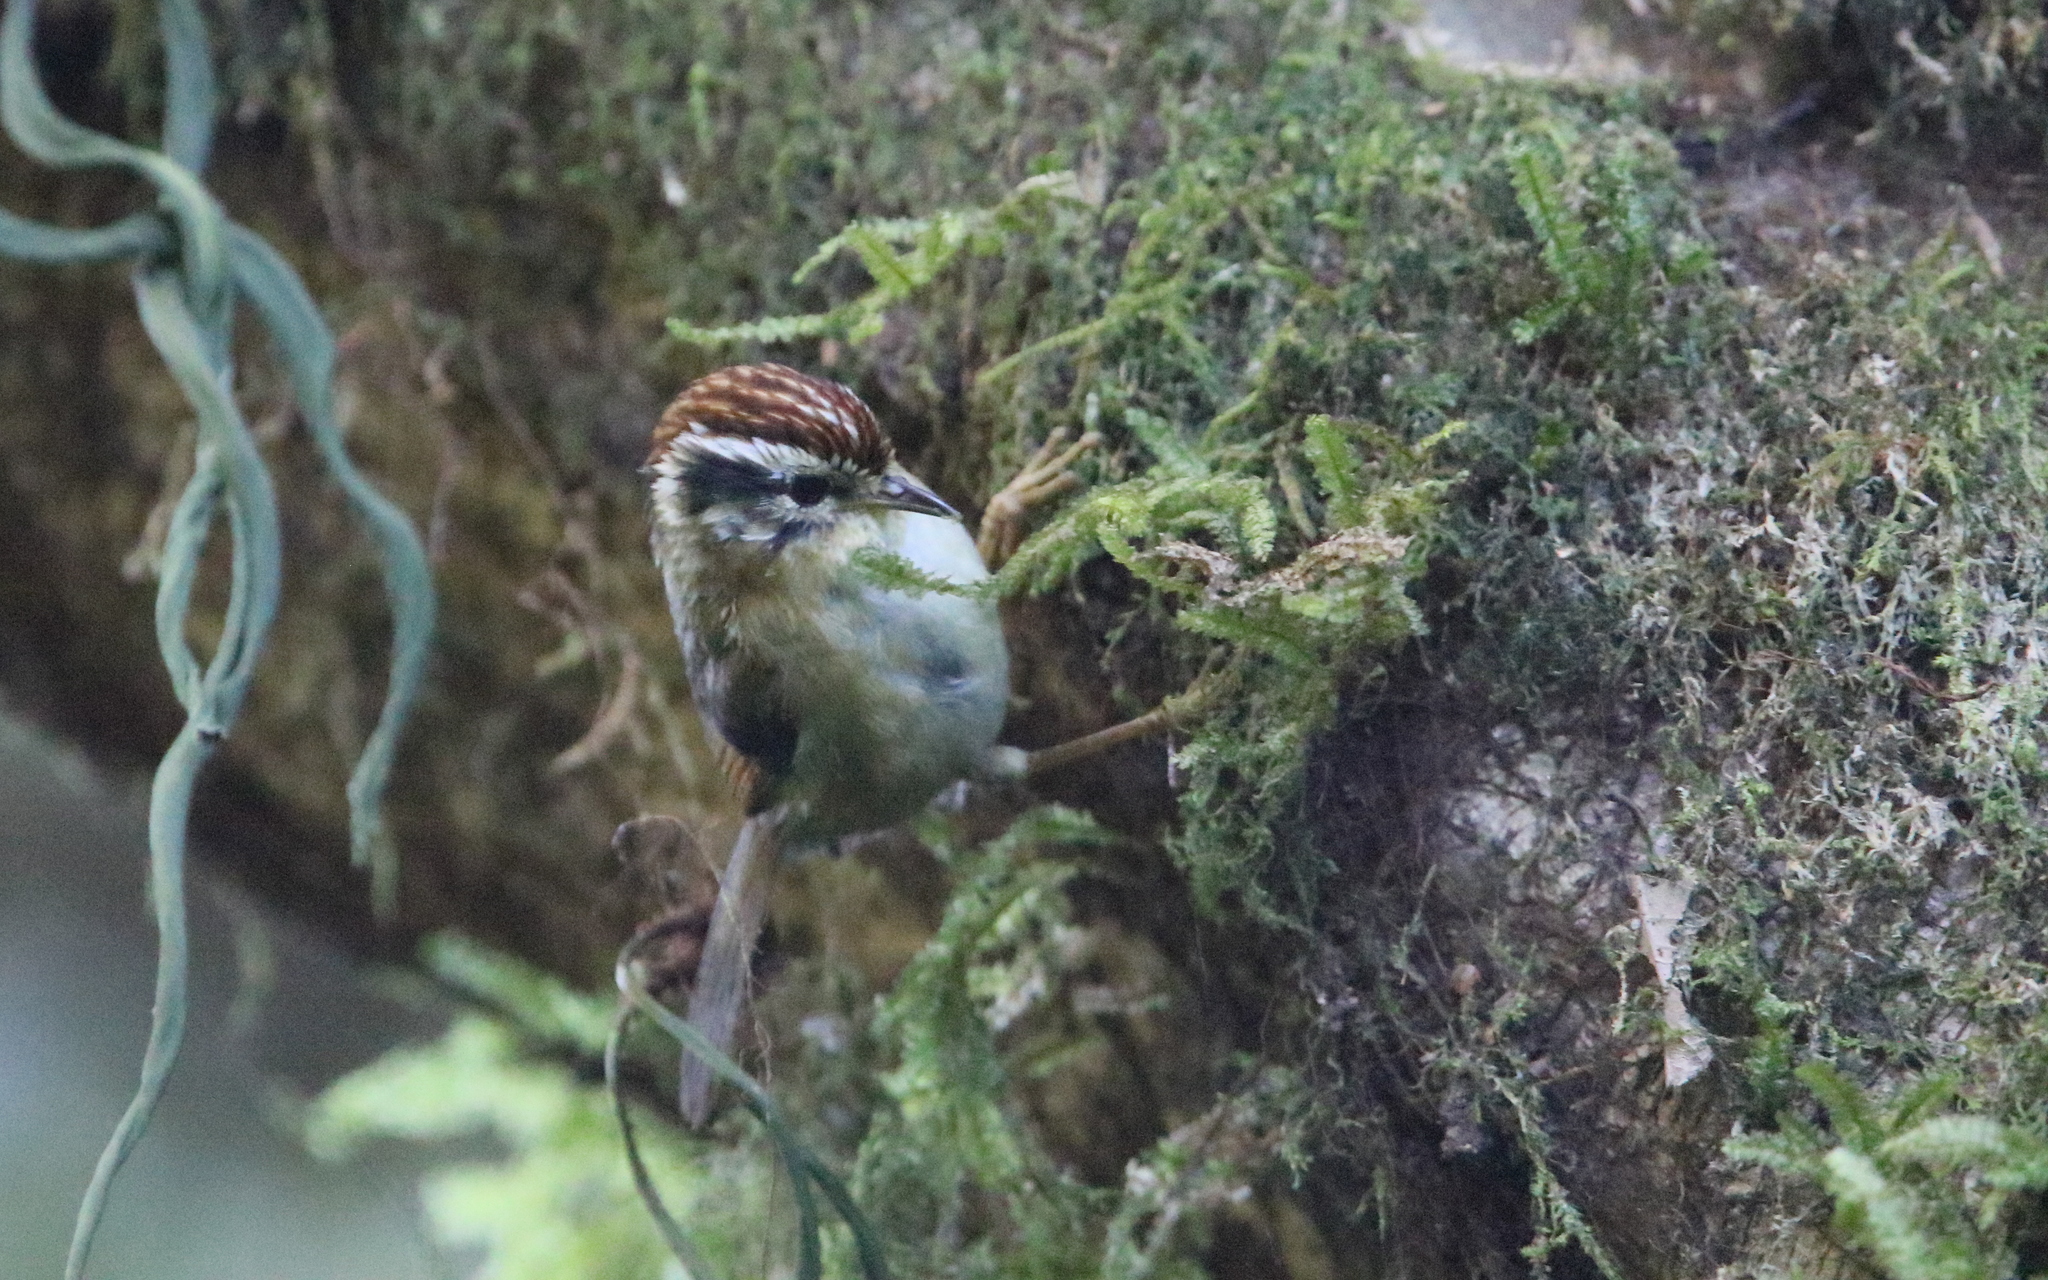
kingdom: Animalia
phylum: Chordata
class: Aves
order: Passeriformes
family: Pellorneidae
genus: Alcippe
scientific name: Alcippe castaneceps
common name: Rufous-winged fulvetta
